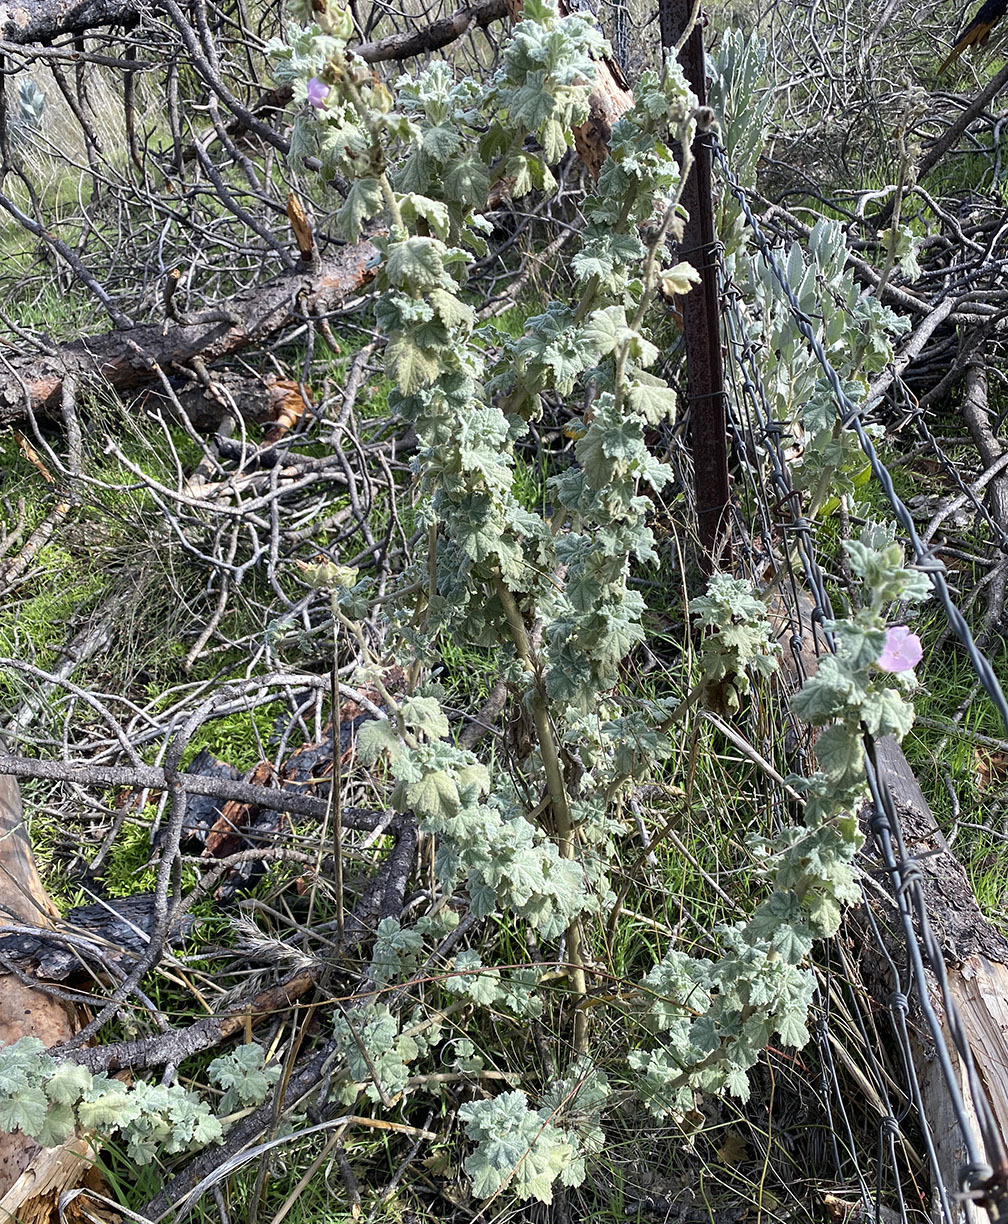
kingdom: Plantae
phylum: Tracheophyta
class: Magnoliopsida
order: Malvales
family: Malvaceae
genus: Malacothamnus
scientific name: Malacothamnus aboriginum
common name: Indian valley bush-mallow
